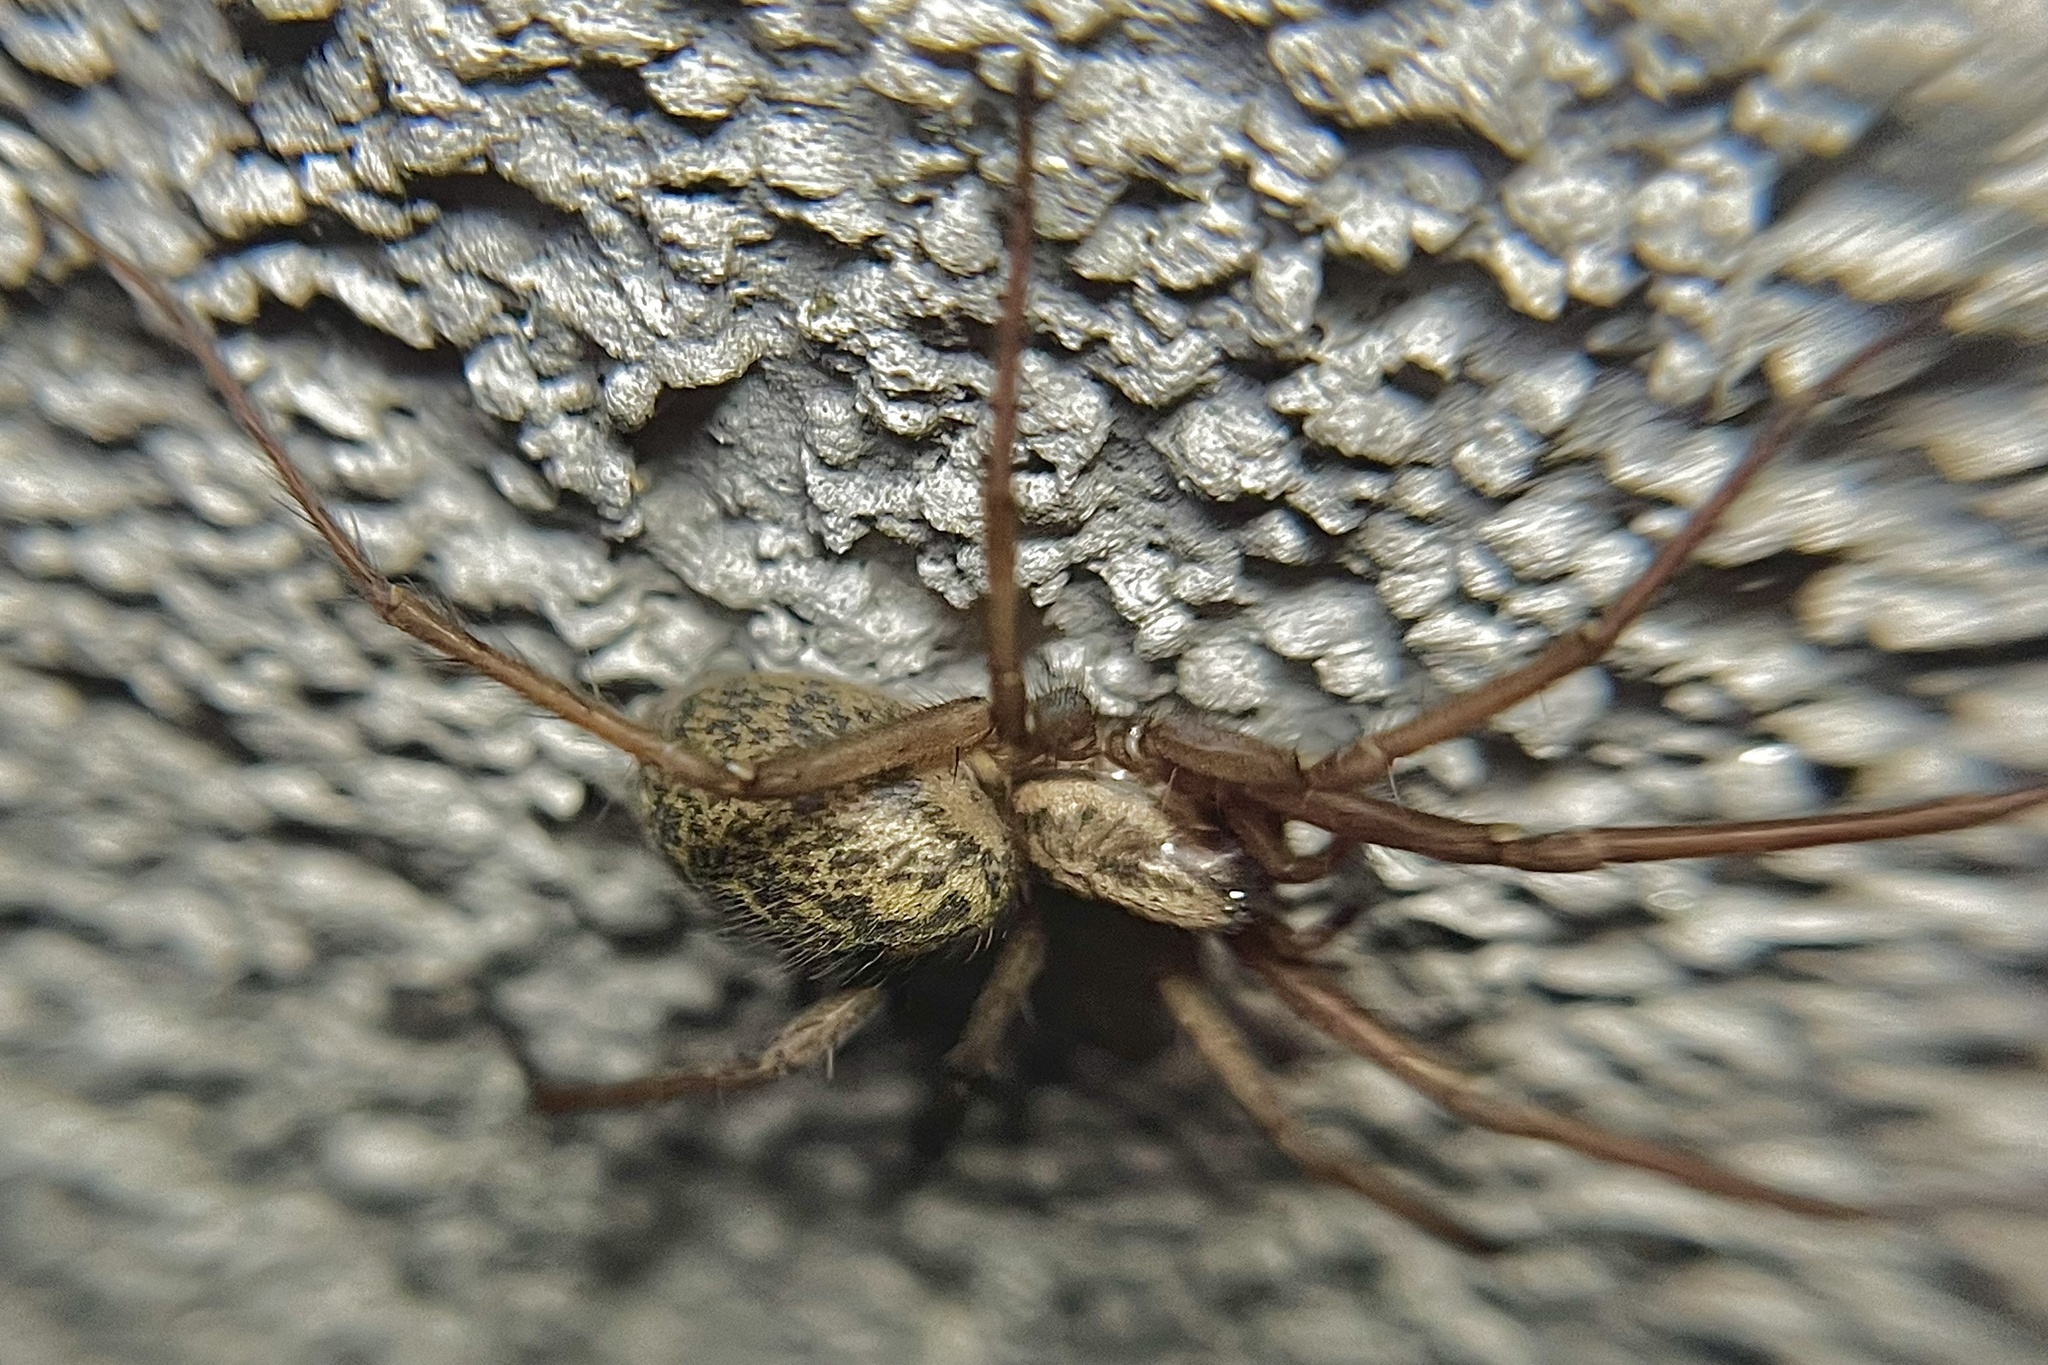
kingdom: Animalia
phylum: Arthropoda
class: Arachnida
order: Araneae
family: Agelenidae
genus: Eratigena
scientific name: Eratigena atrica
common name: Giant house spider
